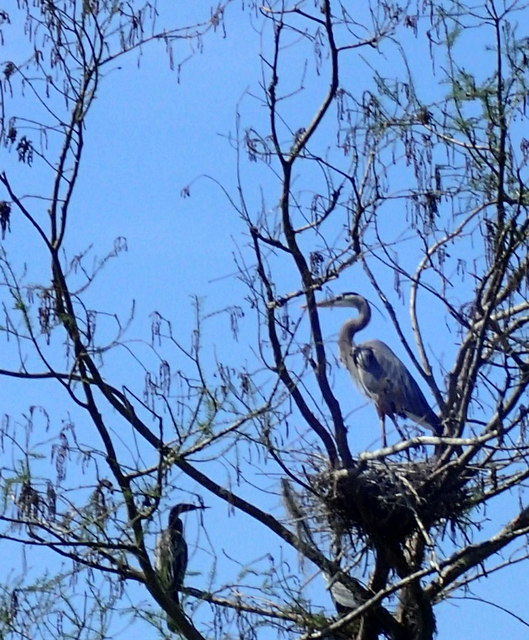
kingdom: Animalia
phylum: Chordata
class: Aves
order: Pelecaniformes
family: Ardeidae
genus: Ardea
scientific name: Ardea herodias
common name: Great blue heron
